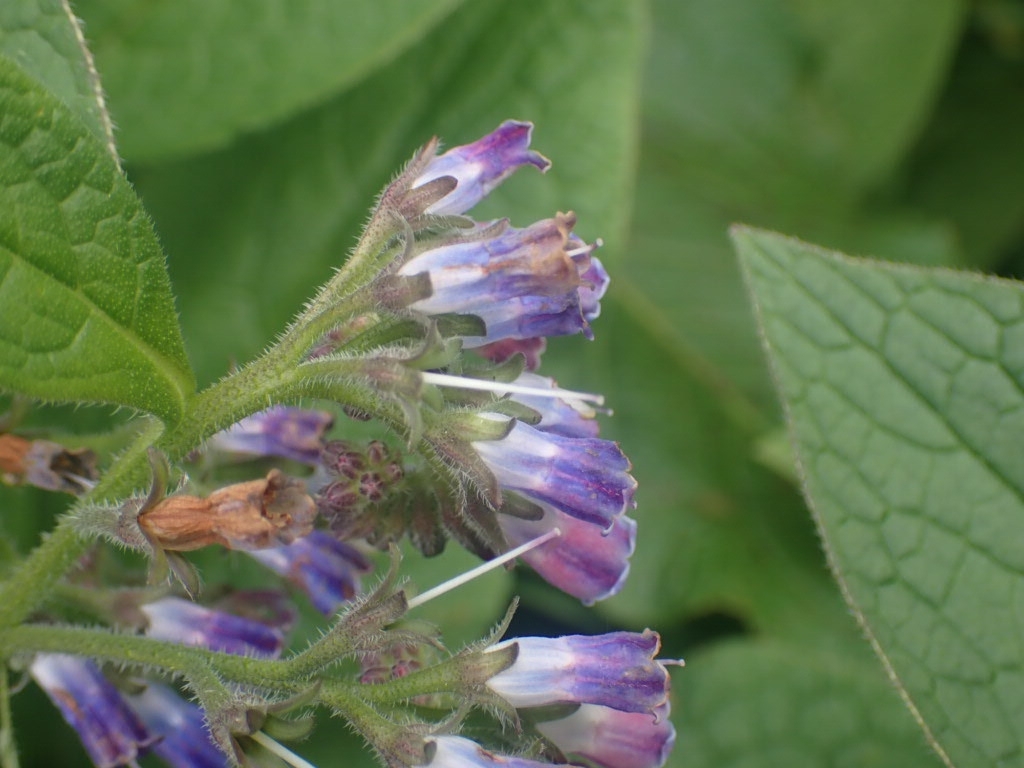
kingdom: Plantae
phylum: Tracheophyta
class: Magnoliopsida
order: Boraginales
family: Boraginaceae
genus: Symphytum
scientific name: Symphytum uplandicum
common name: Russian comfrey
